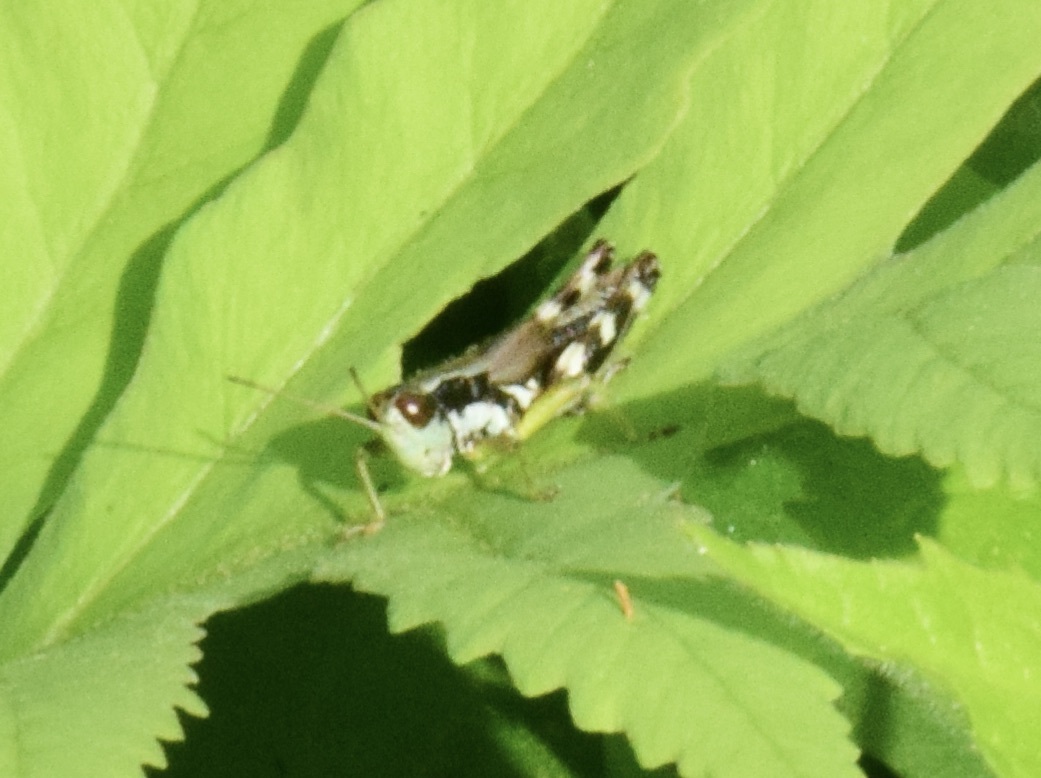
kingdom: Animalia
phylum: Arthropoda
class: Insecta
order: Orthoptera
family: Acrididae
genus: Melanoplus
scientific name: Melanoplus viridipes
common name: Green-legged locust
